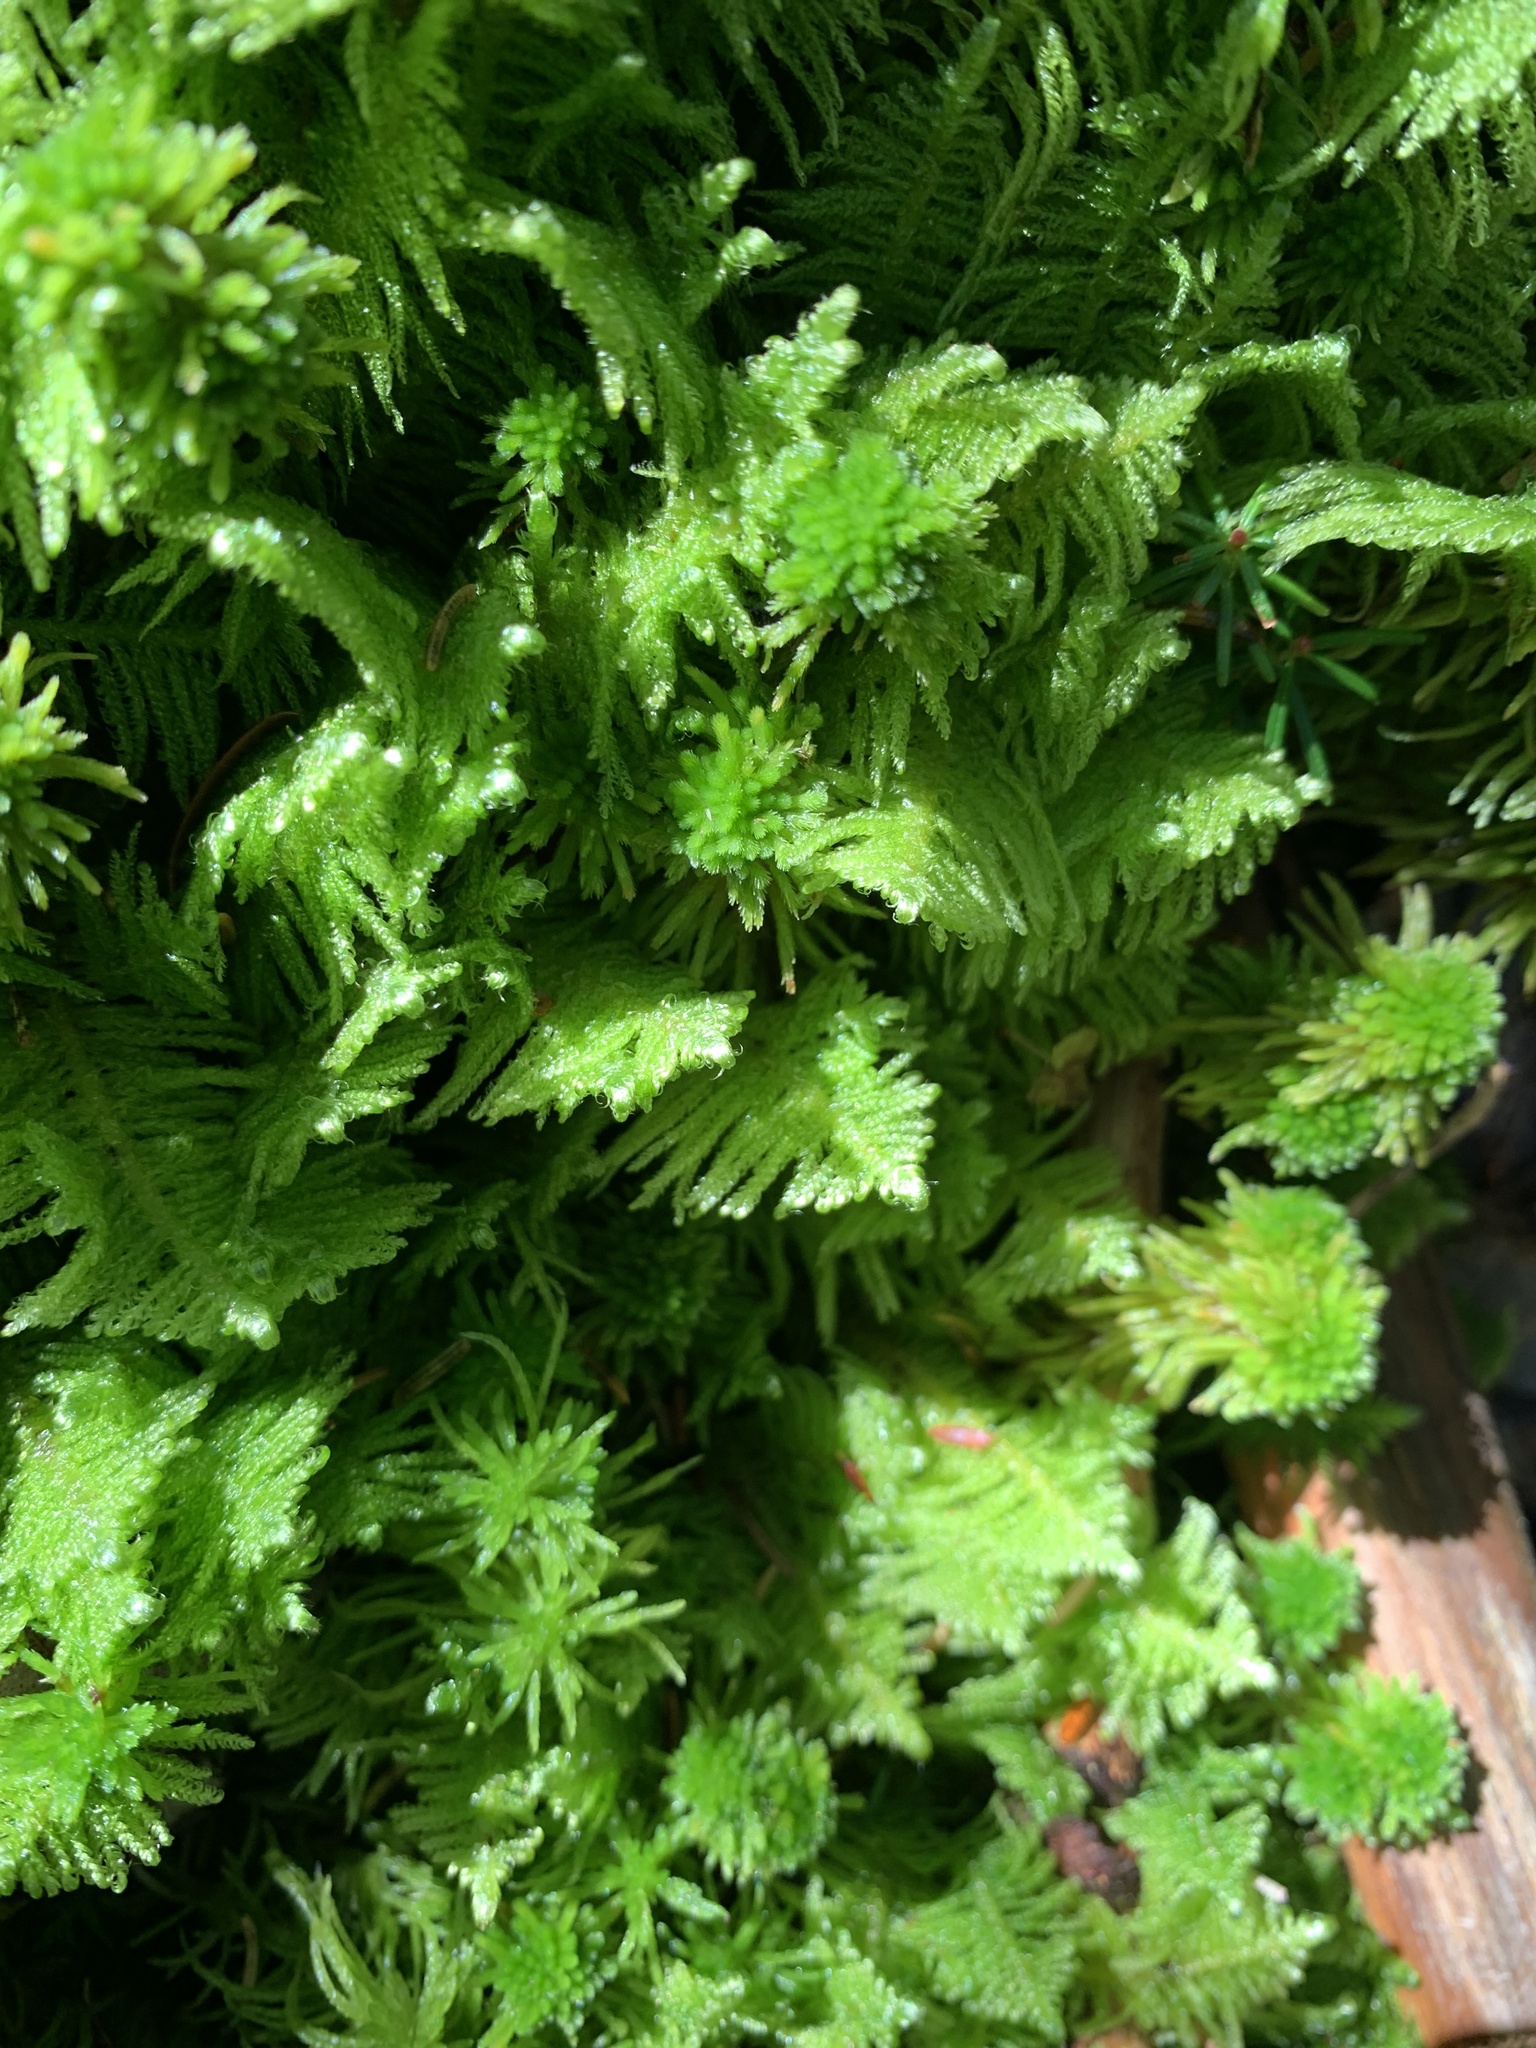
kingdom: Plantae
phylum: Bryophyta
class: Bryopsida
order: Hypnales
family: Pylaisiaceae
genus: Ptilium
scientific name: Ptilium crista-castrensis
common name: Knight's plume moss
